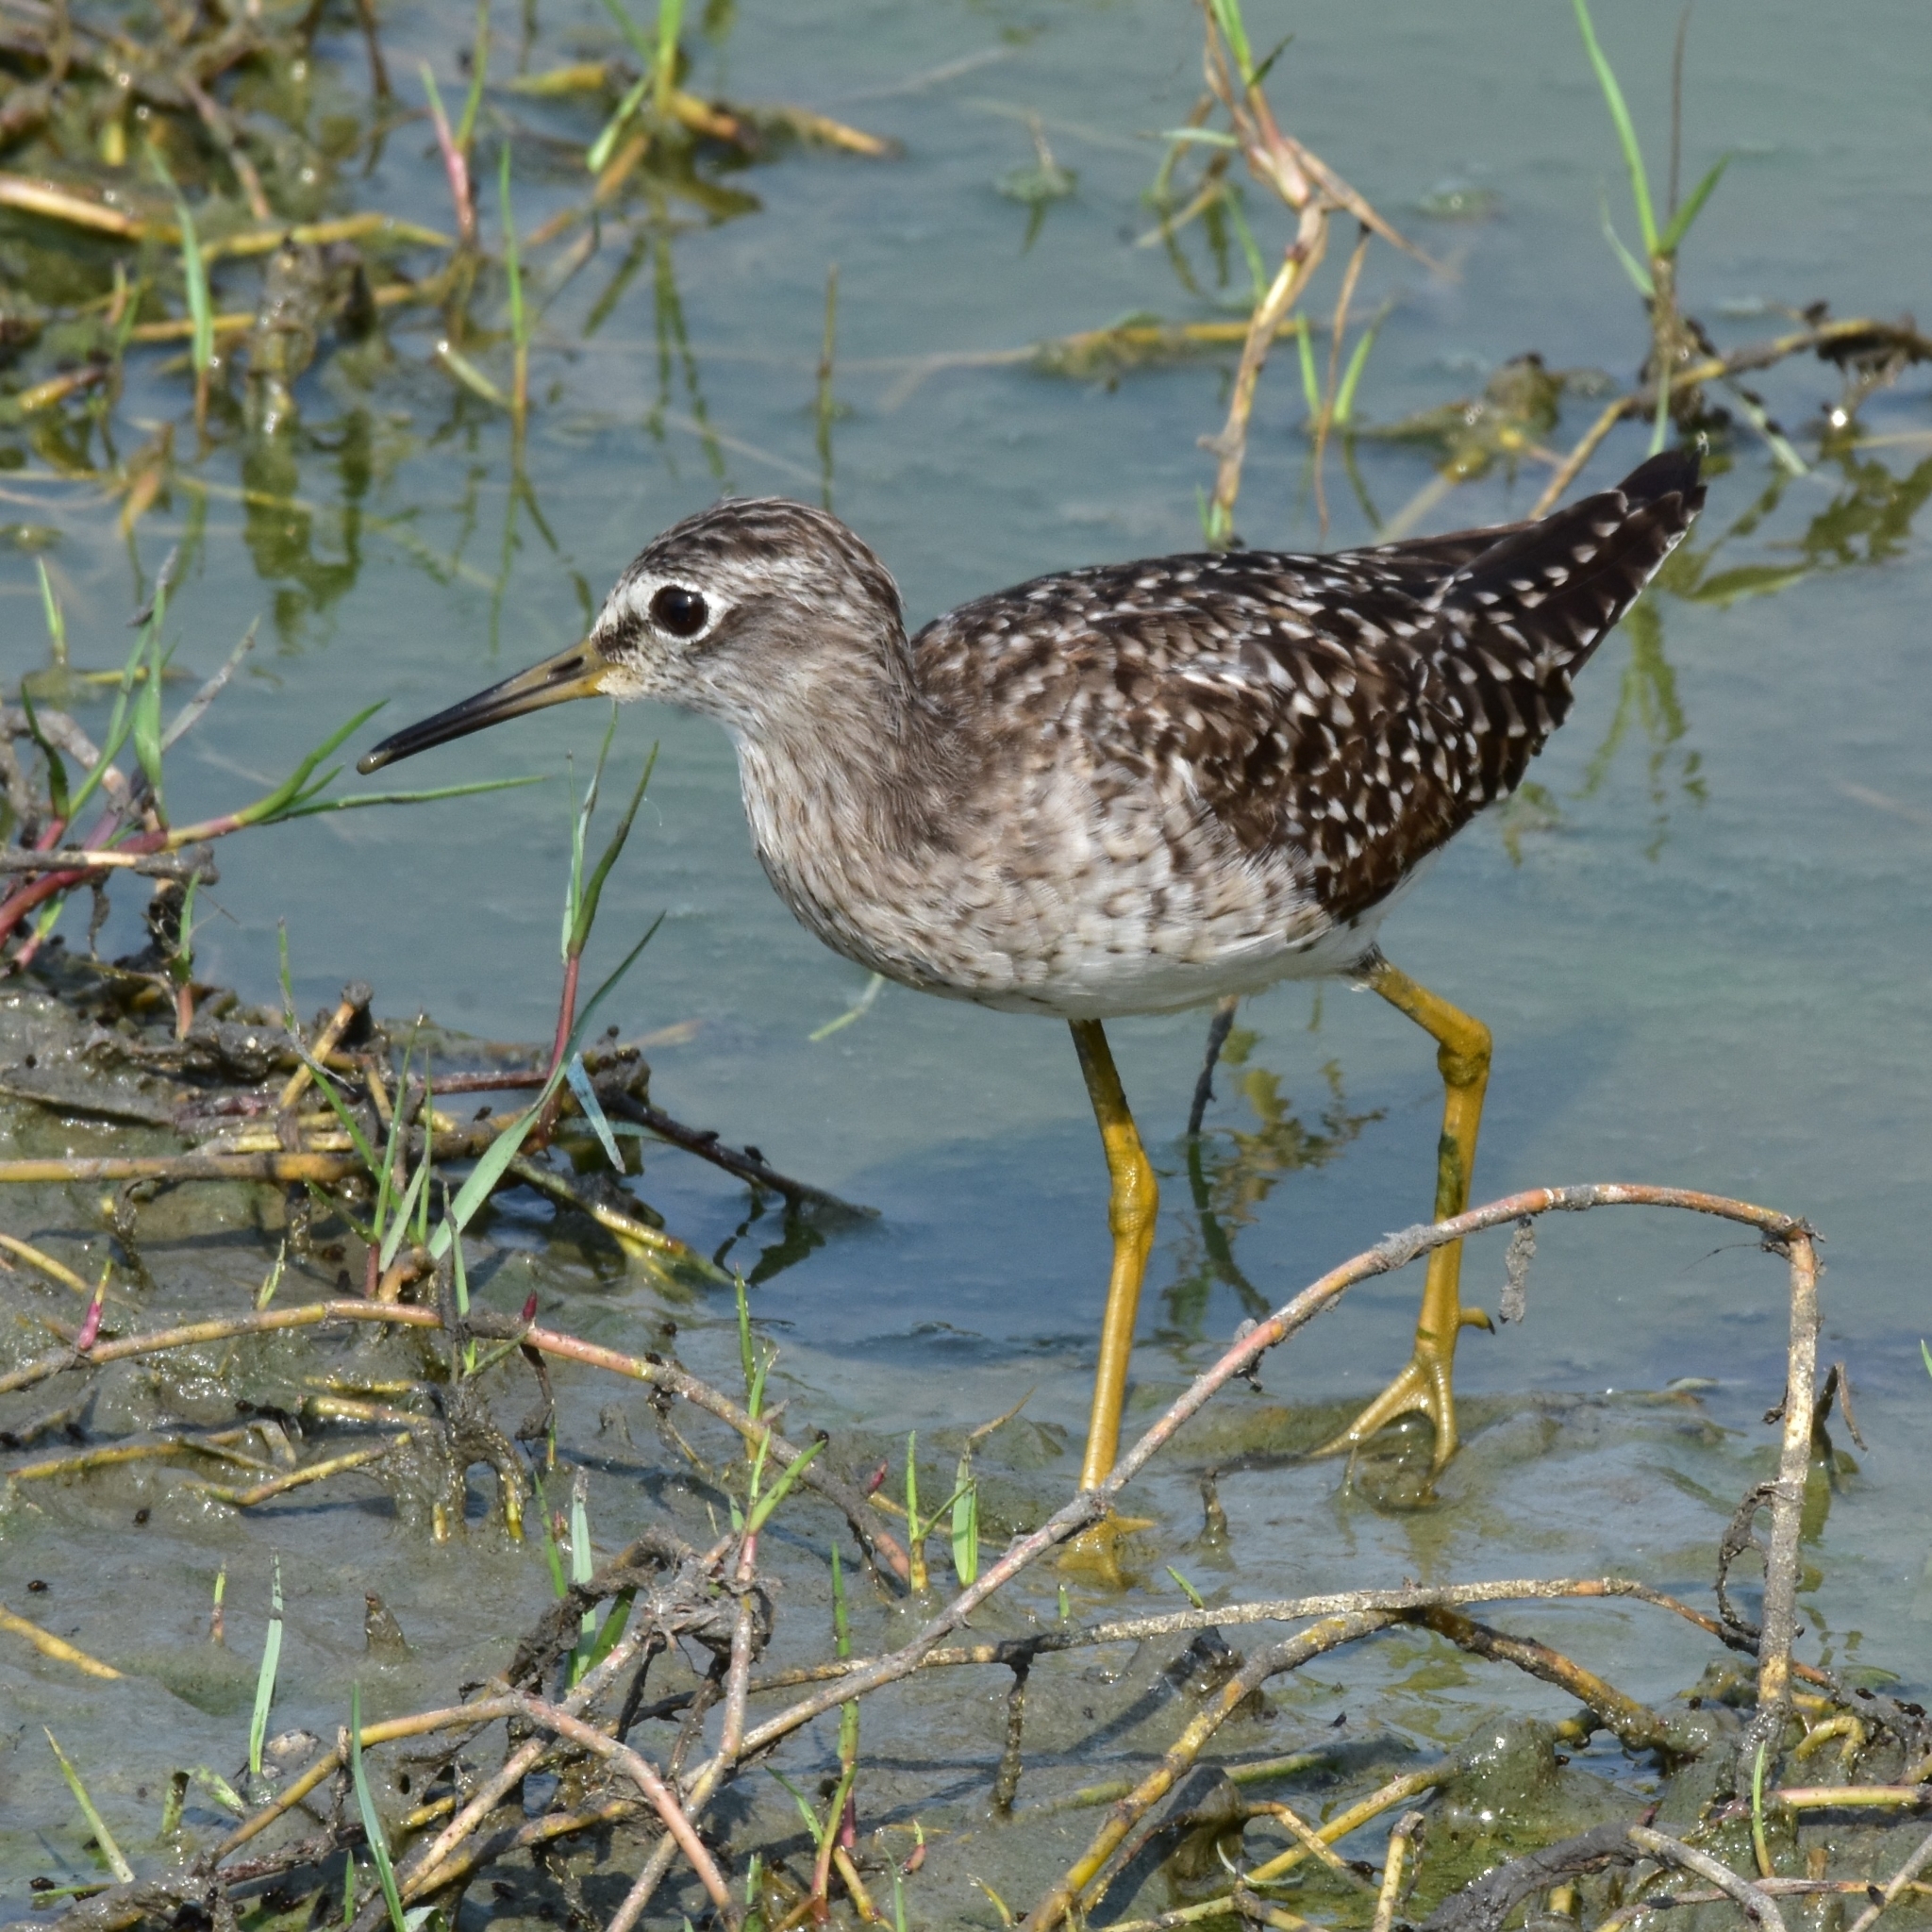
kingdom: Animalia
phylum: Chordata
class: Aves
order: Charadriiformes
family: Scolopacidae
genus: Tringa
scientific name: Tringa glareola
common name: Wood sandpiper
